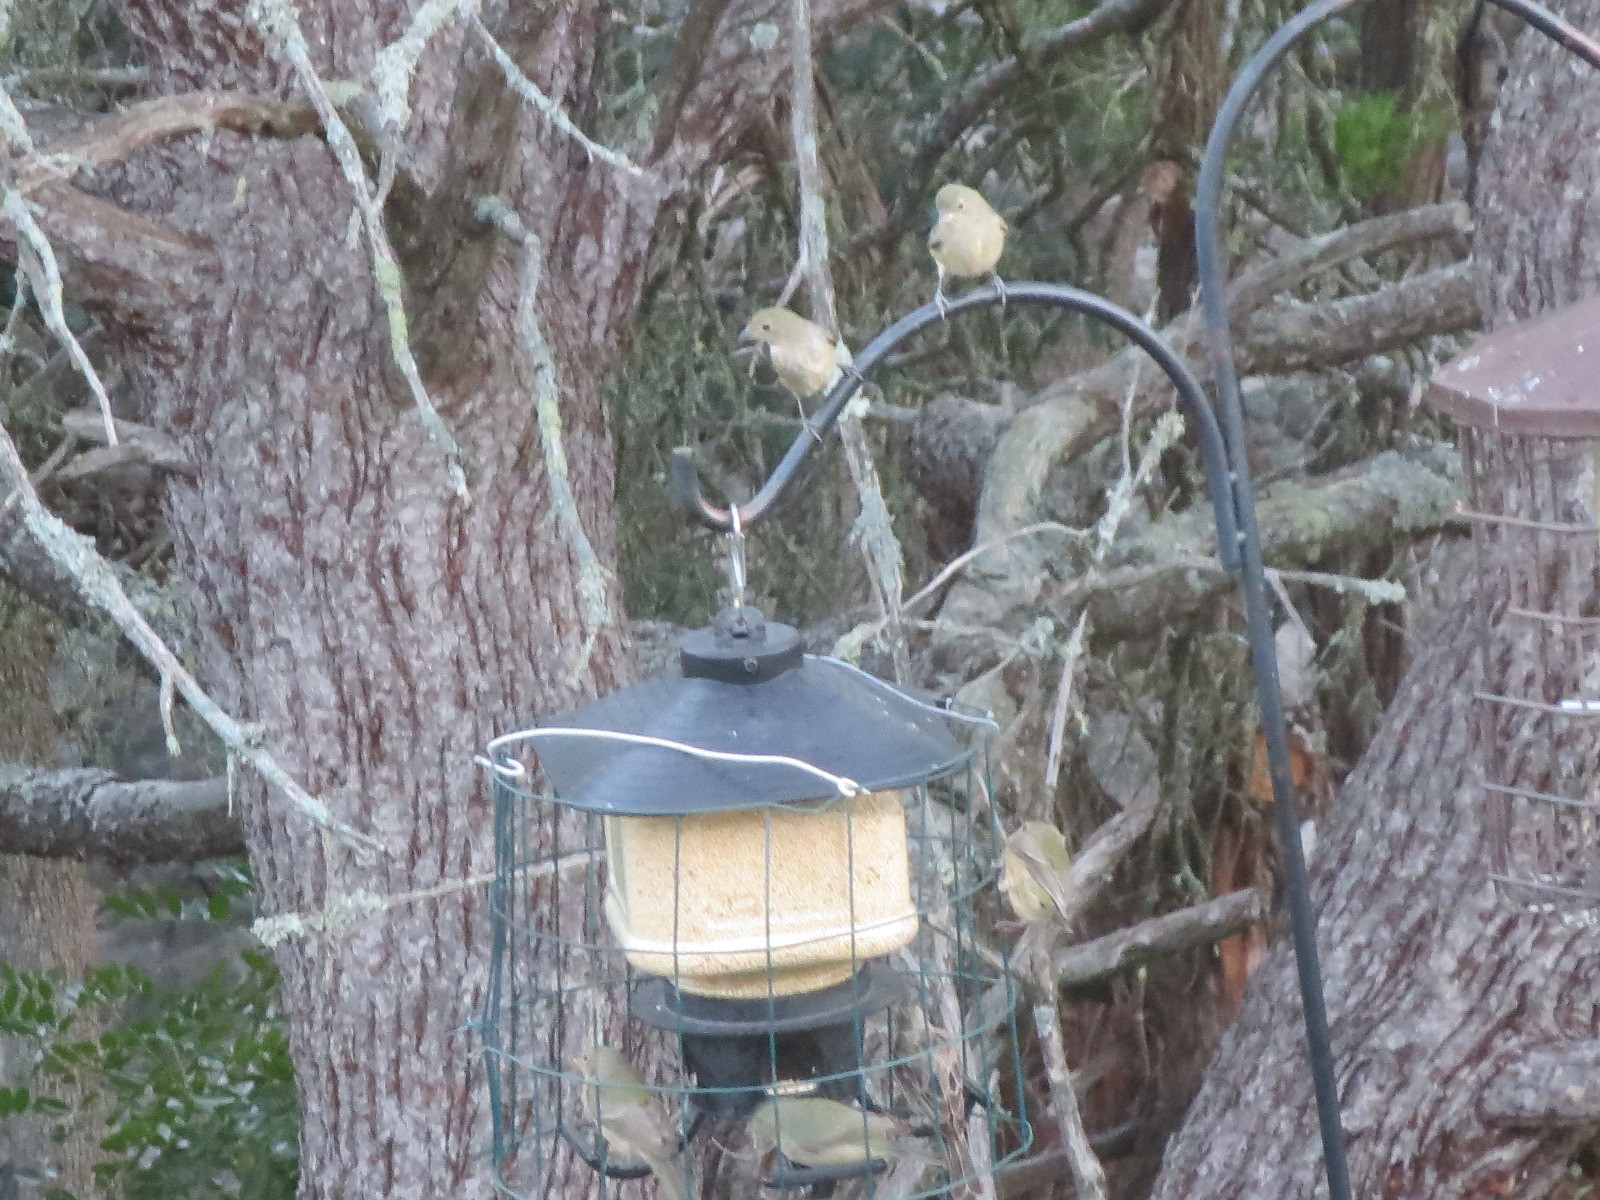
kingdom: Animalia
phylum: Chordata
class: Aves
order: Passeriformes
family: Cardinalidae
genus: Passerina
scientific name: Passerina ciris
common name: Painted bunting
